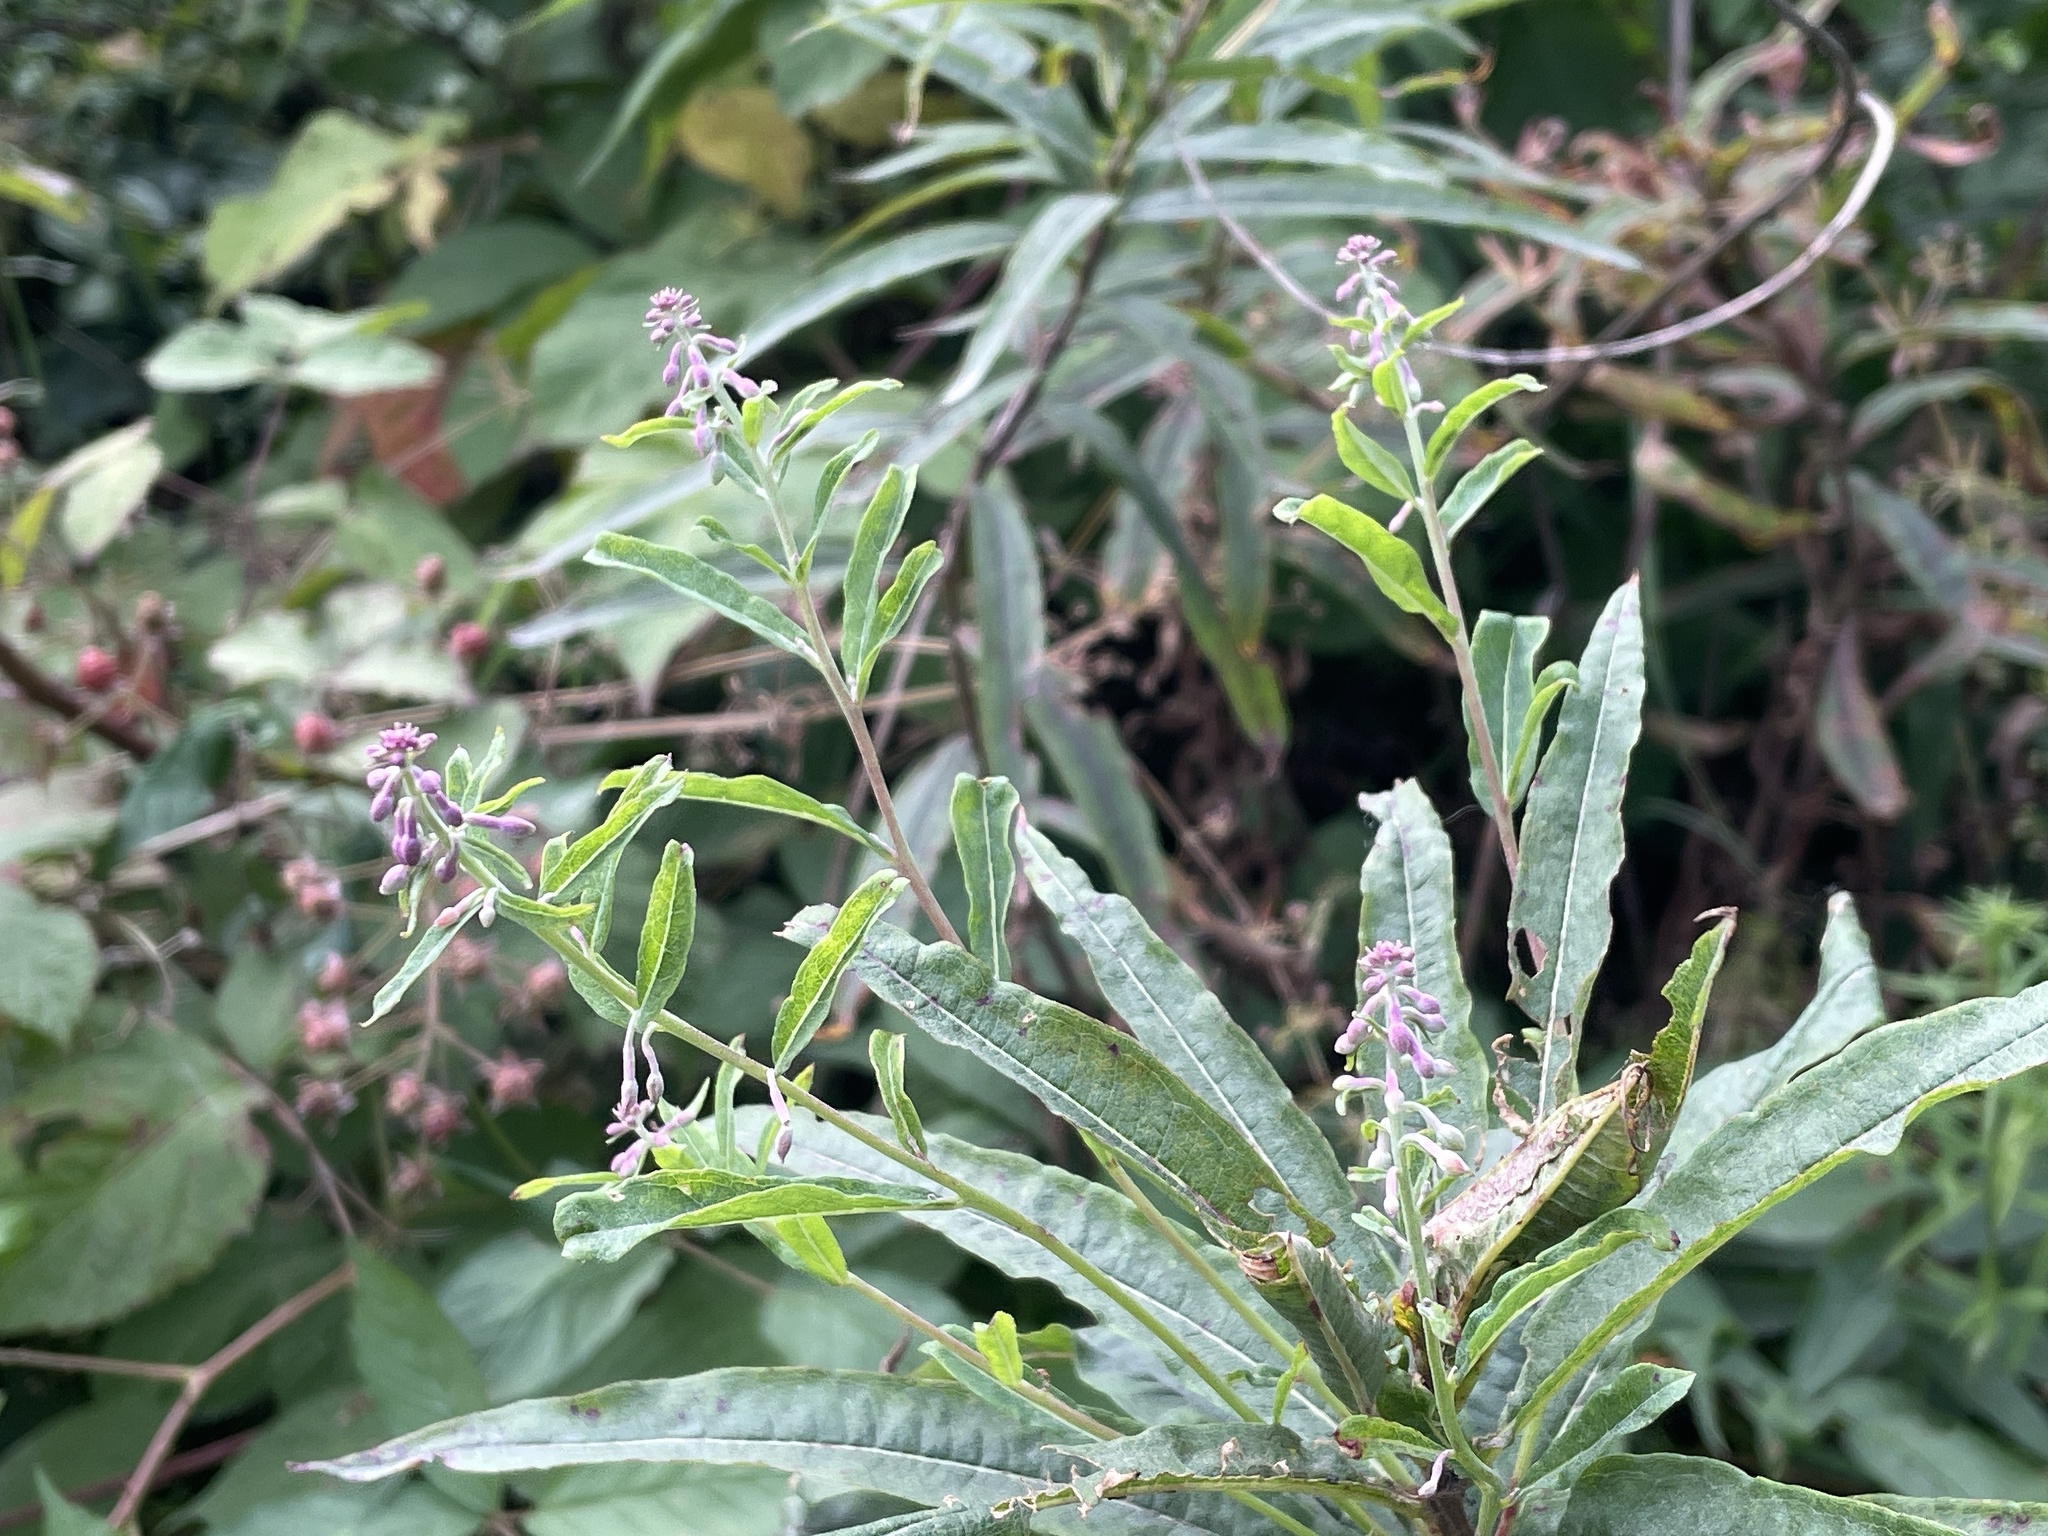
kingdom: Plantae
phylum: Tracheophyta
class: Magnoliopsida
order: Myrtales
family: Onagraceae
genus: Chamaenerion
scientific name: Chamaenerion angustifolium
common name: Fireweed
